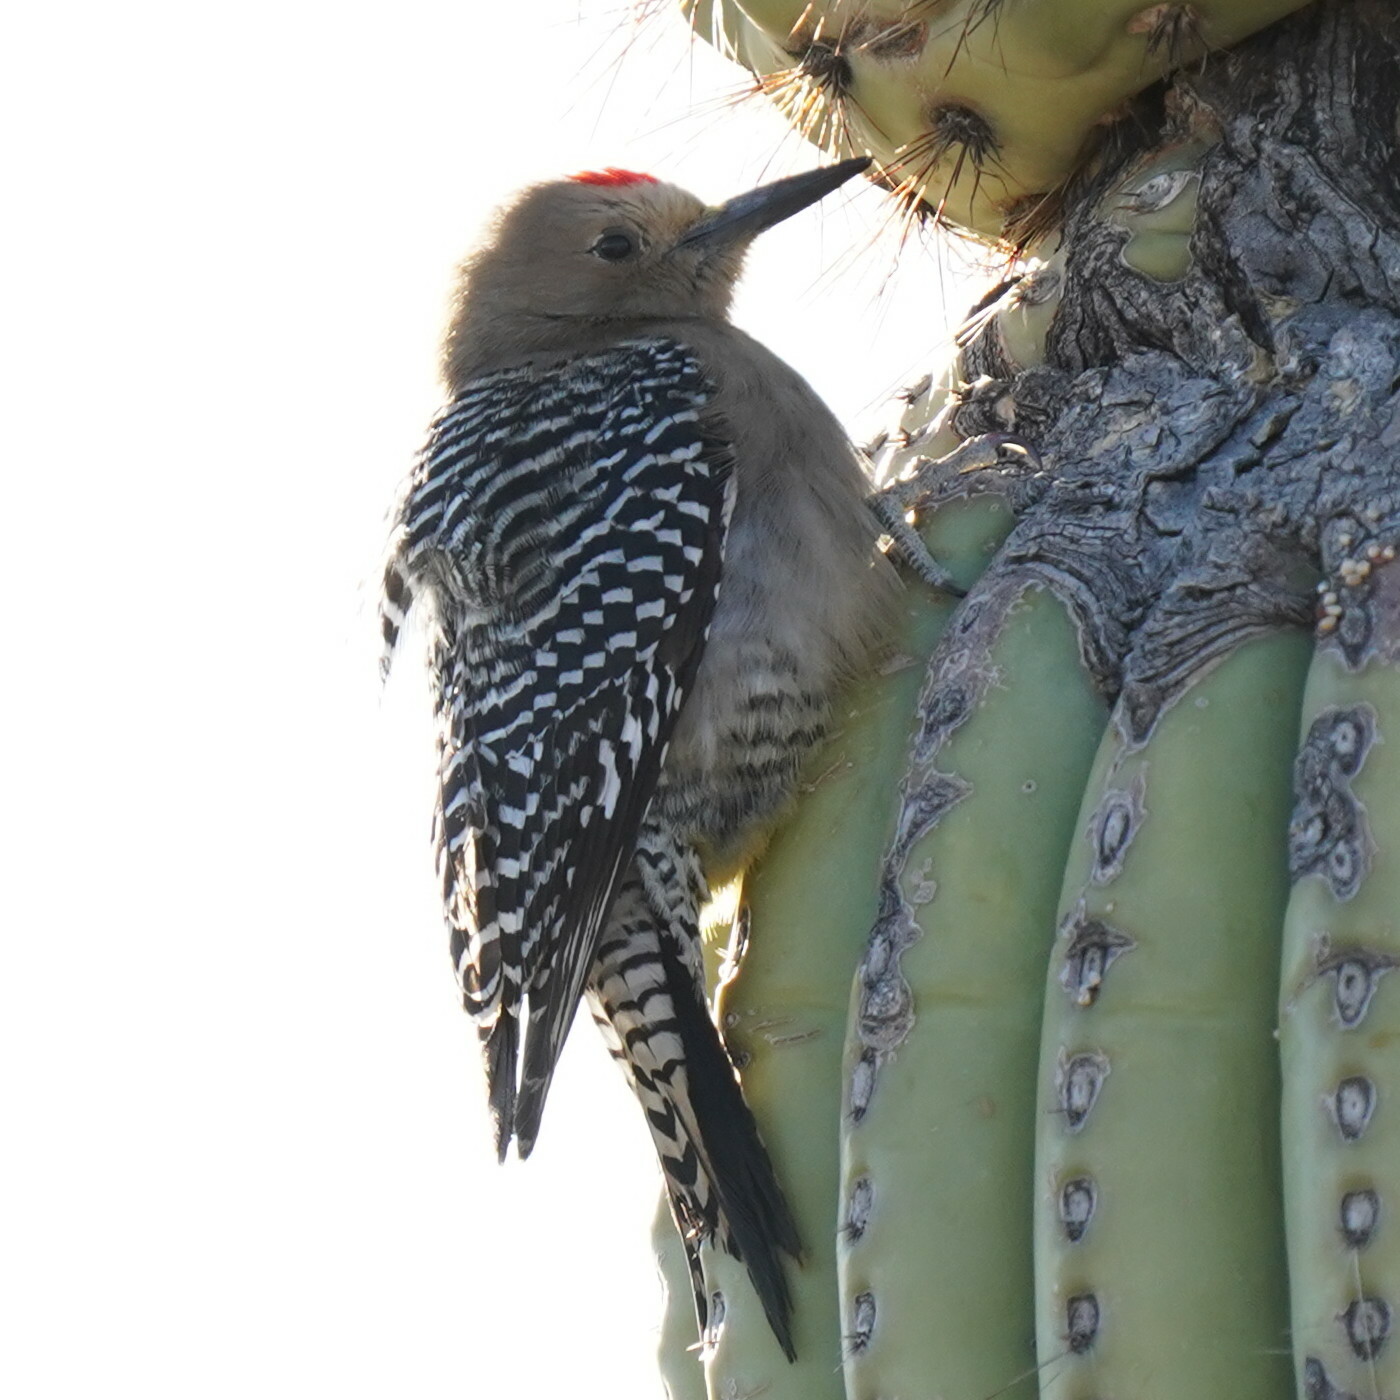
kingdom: Animalia
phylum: Chordata
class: Aves
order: Piciformes
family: Picidae
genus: Melanerpes
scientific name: Melanerpes uropygialis
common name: Gila woodpecker
